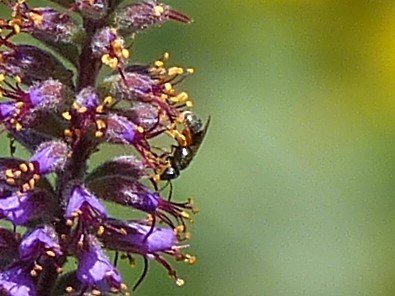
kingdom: Animalia
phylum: Arthropoda
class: Insecta
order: Hymenoptera
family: Halictidae
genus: Dialictus
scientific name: Dialictus
